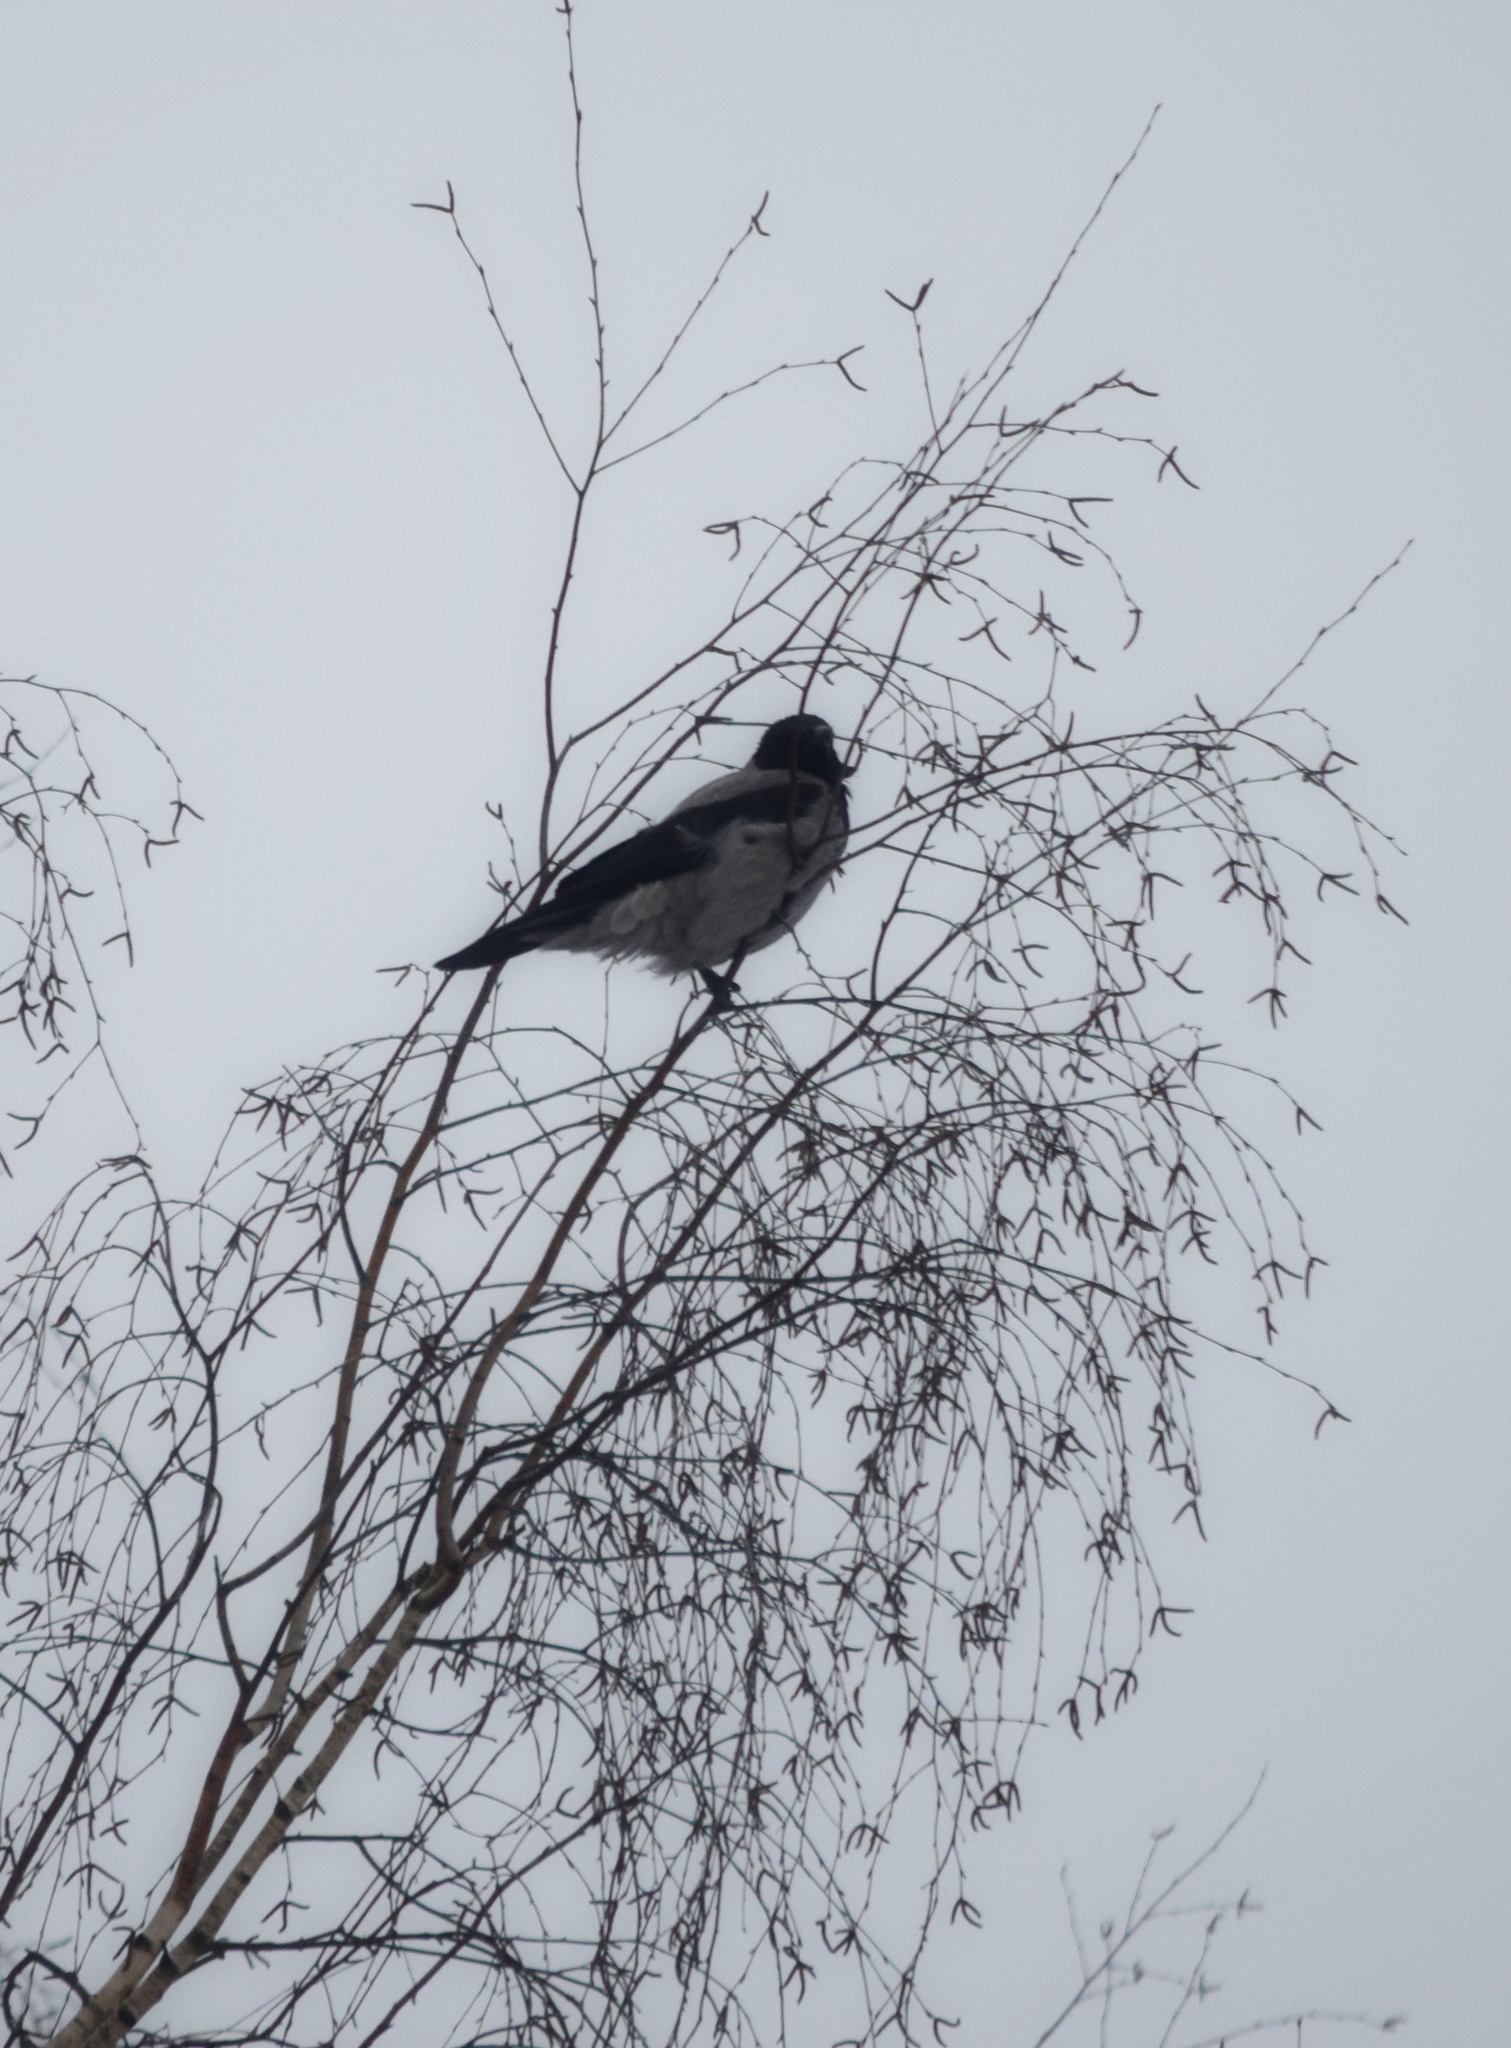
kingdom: Animalia
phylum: Chordata
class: Aves
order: Passeriformes
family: Corvidae
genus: Corvus
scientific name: Corvus cornix
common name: Hooded crow
